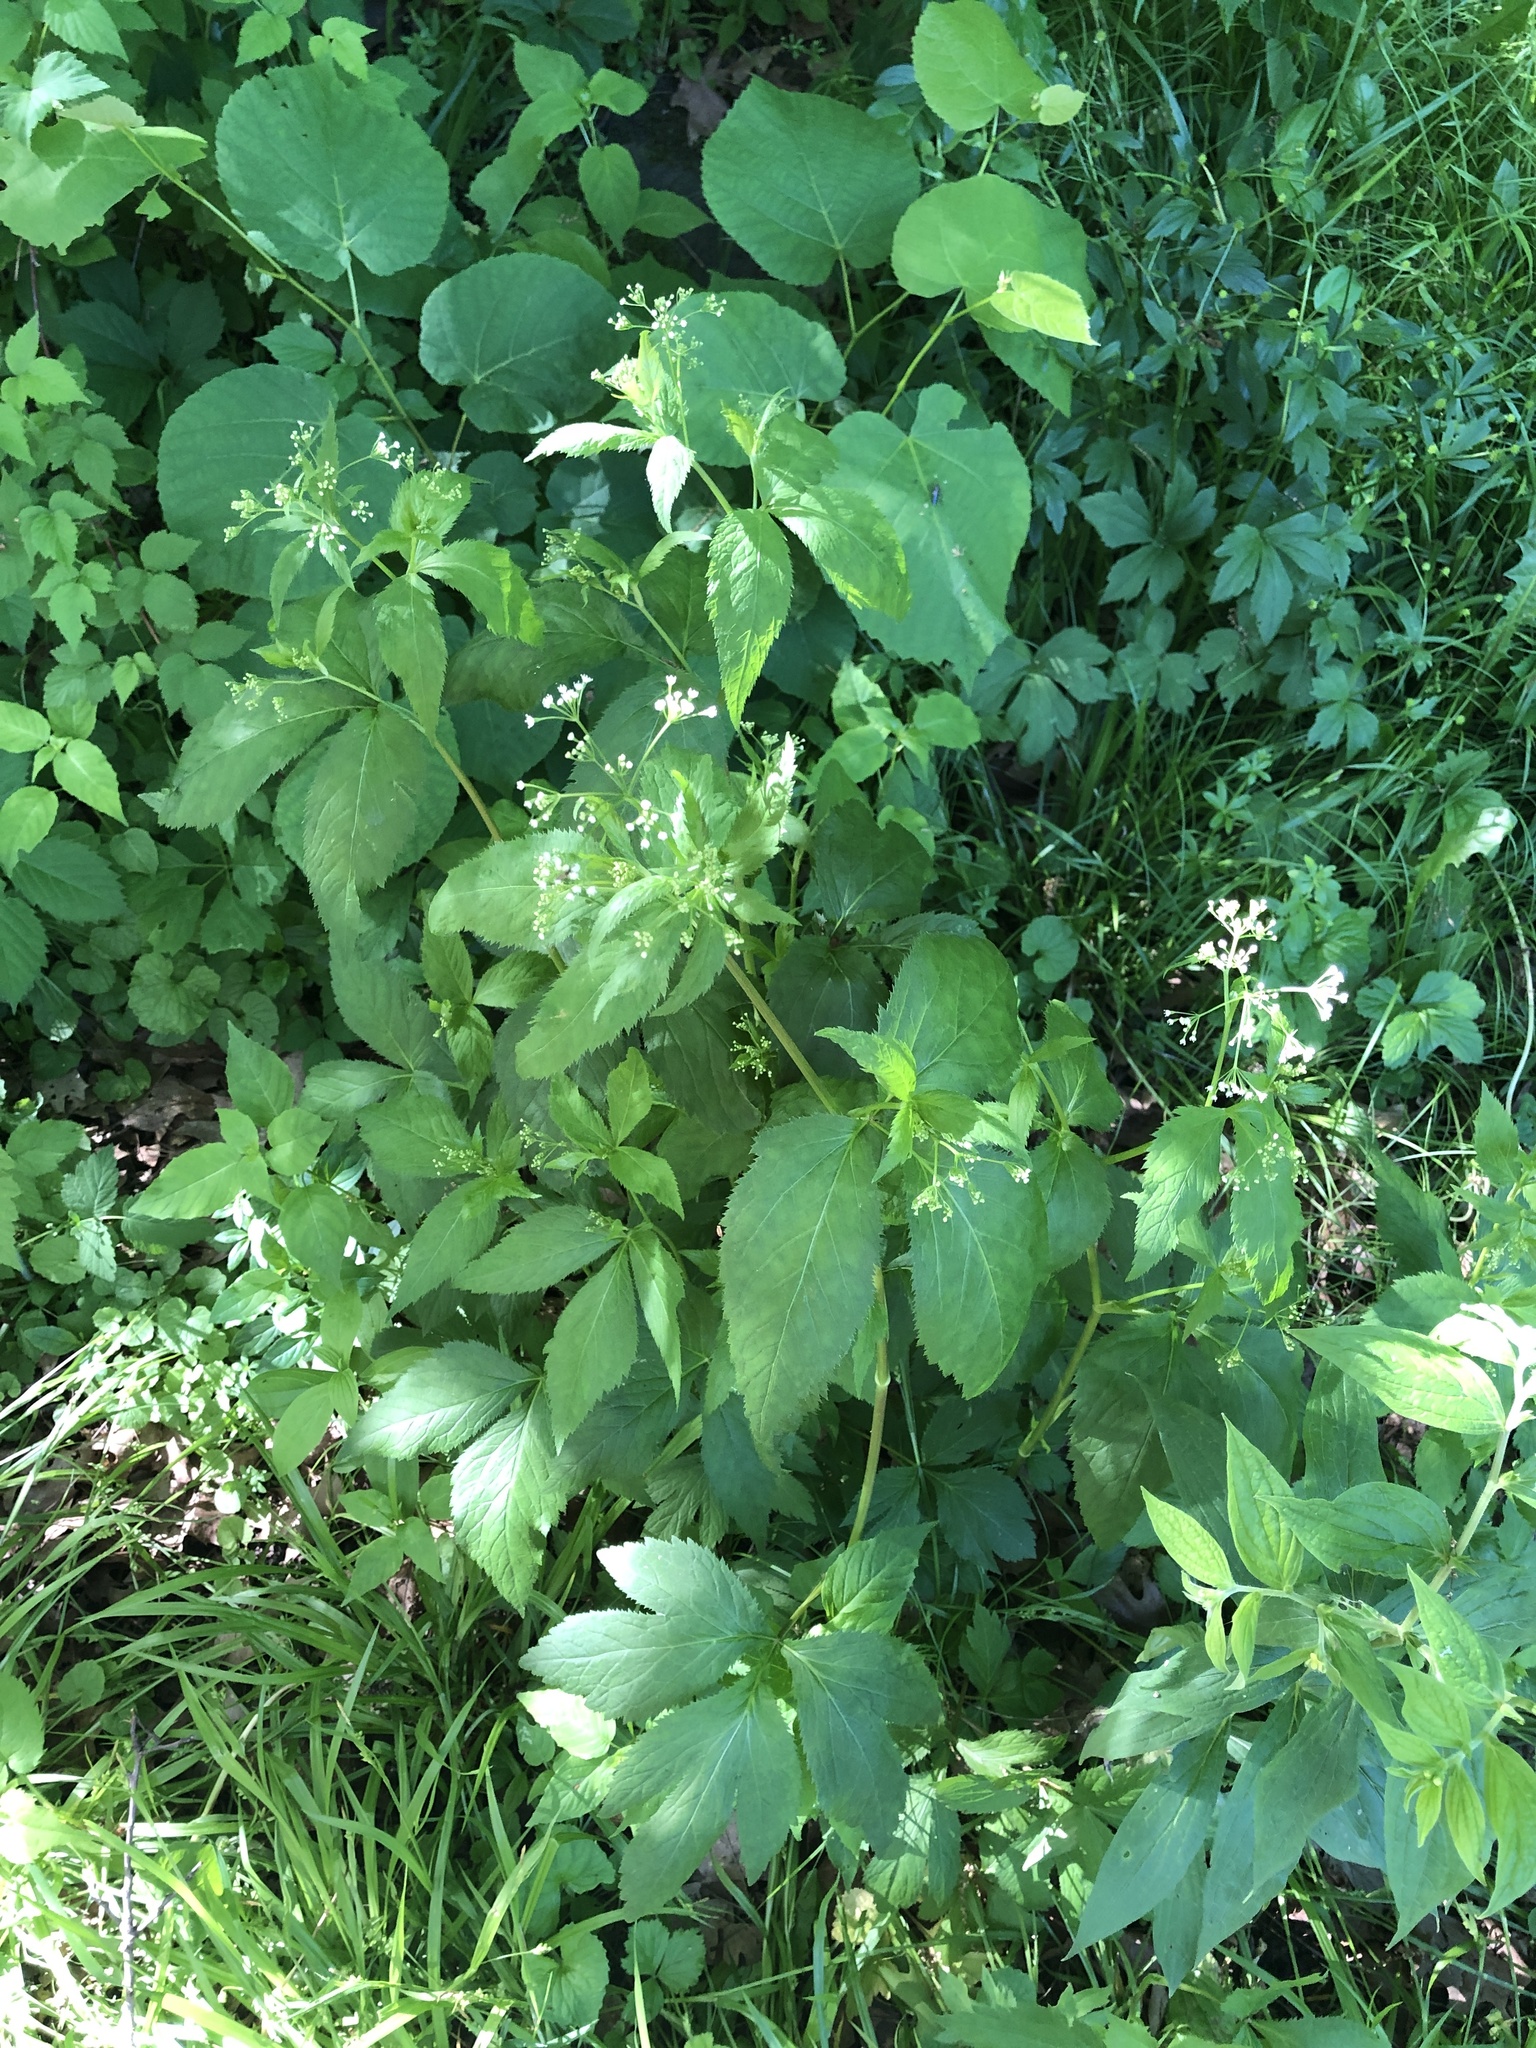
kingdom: Plantae
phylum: Tracheophyta
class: Magnoliopsida
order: Apiales
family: Apiaceae
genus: Cryptotaenia
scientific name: Cryptotaenia canadensis
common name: Honewort
